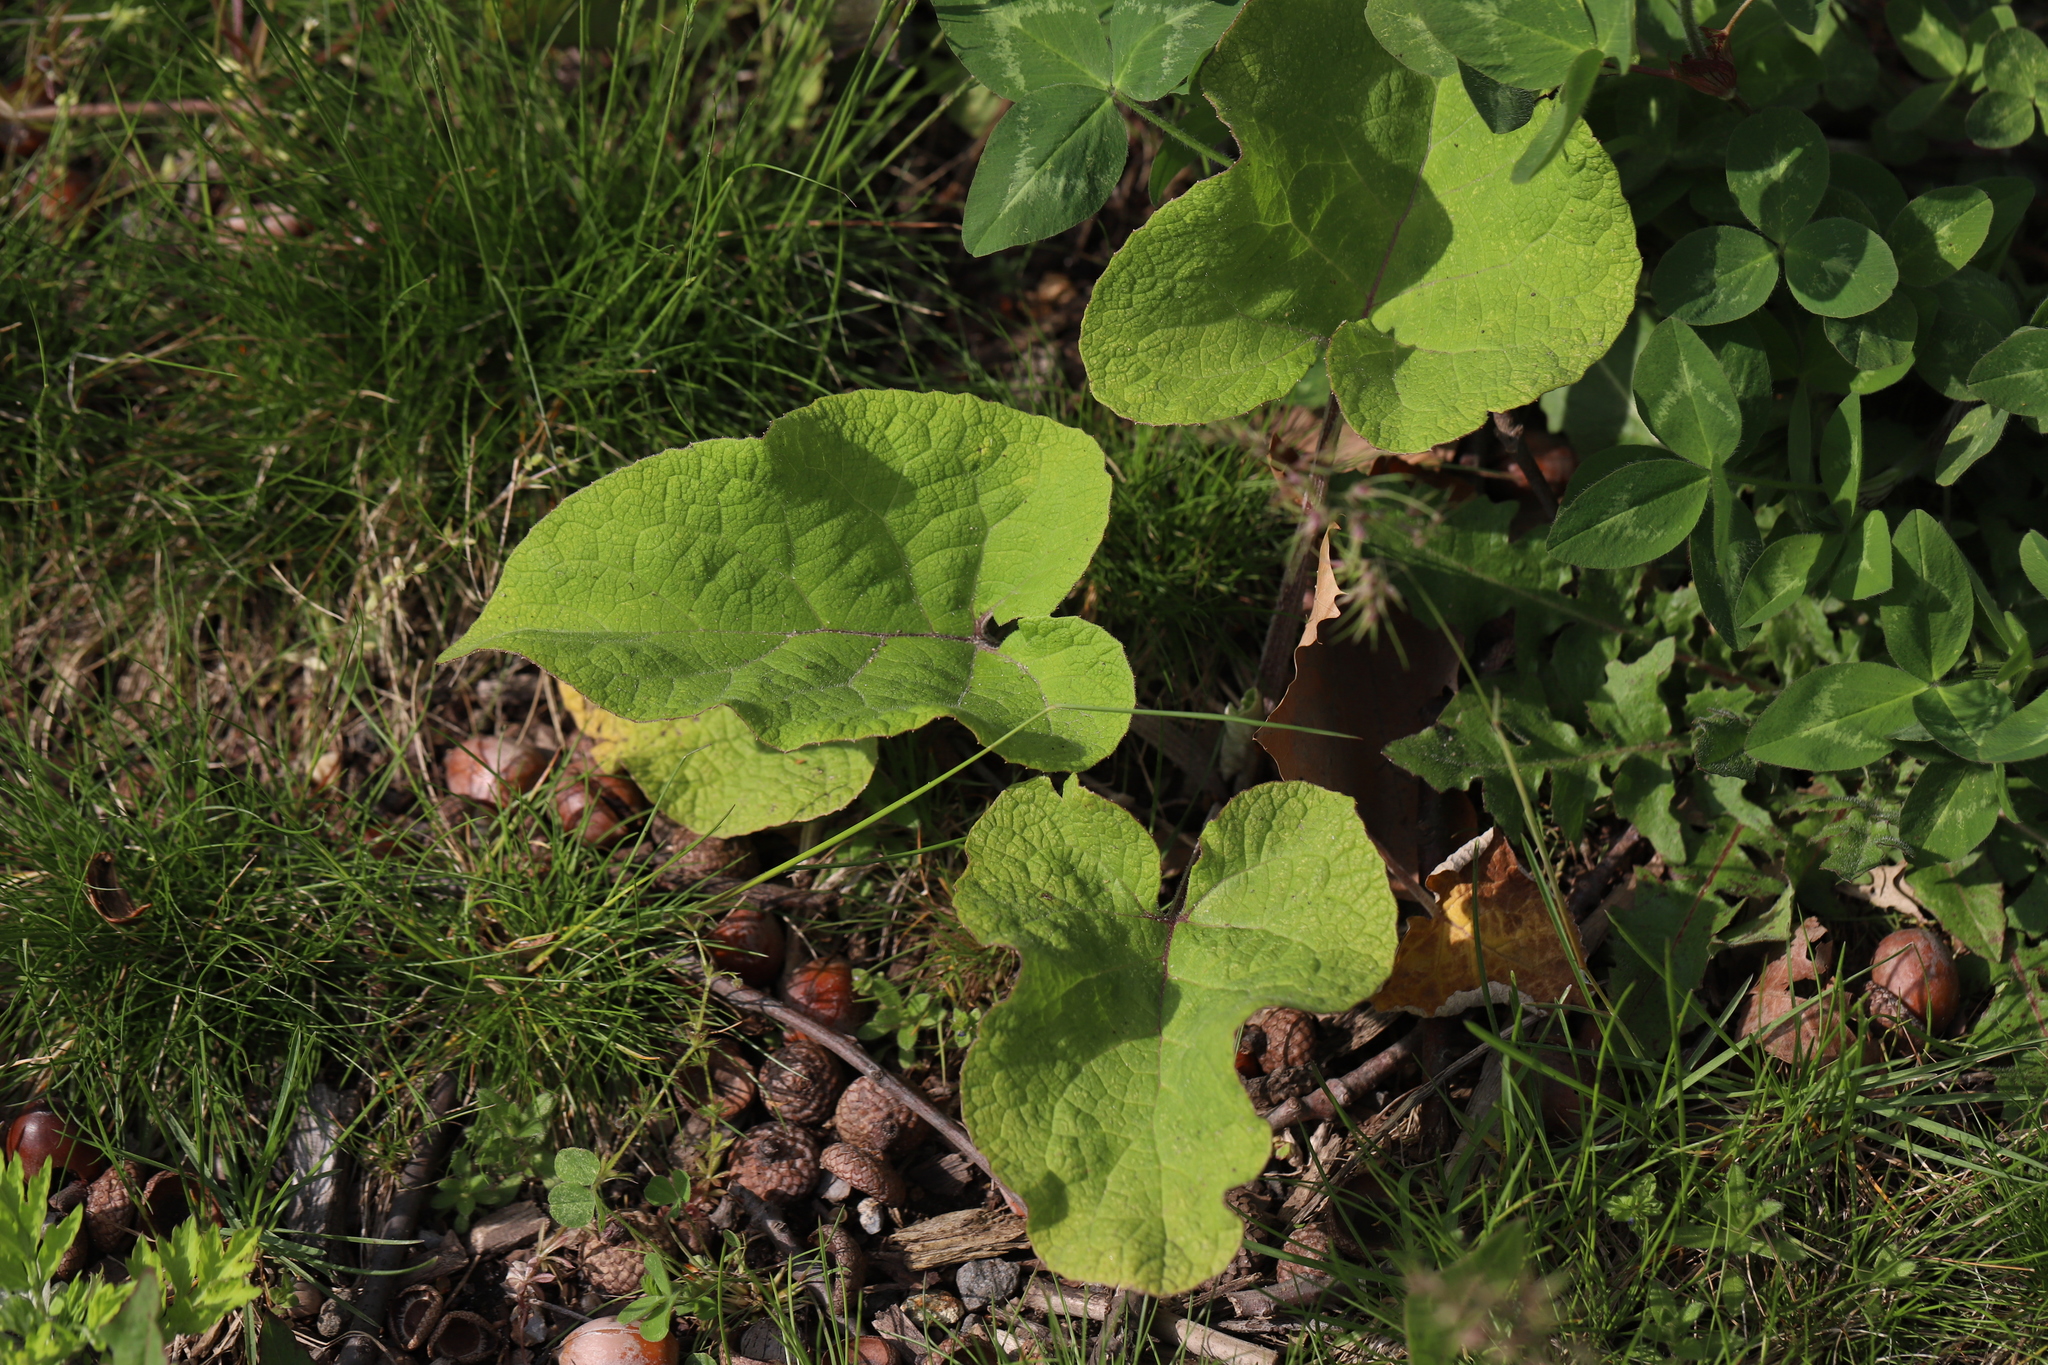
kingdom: Plantae
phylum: Tracheophyta
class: Magnoliopsida
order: Asterales
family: Asteraceae
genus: Arctium
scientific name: Arctium
